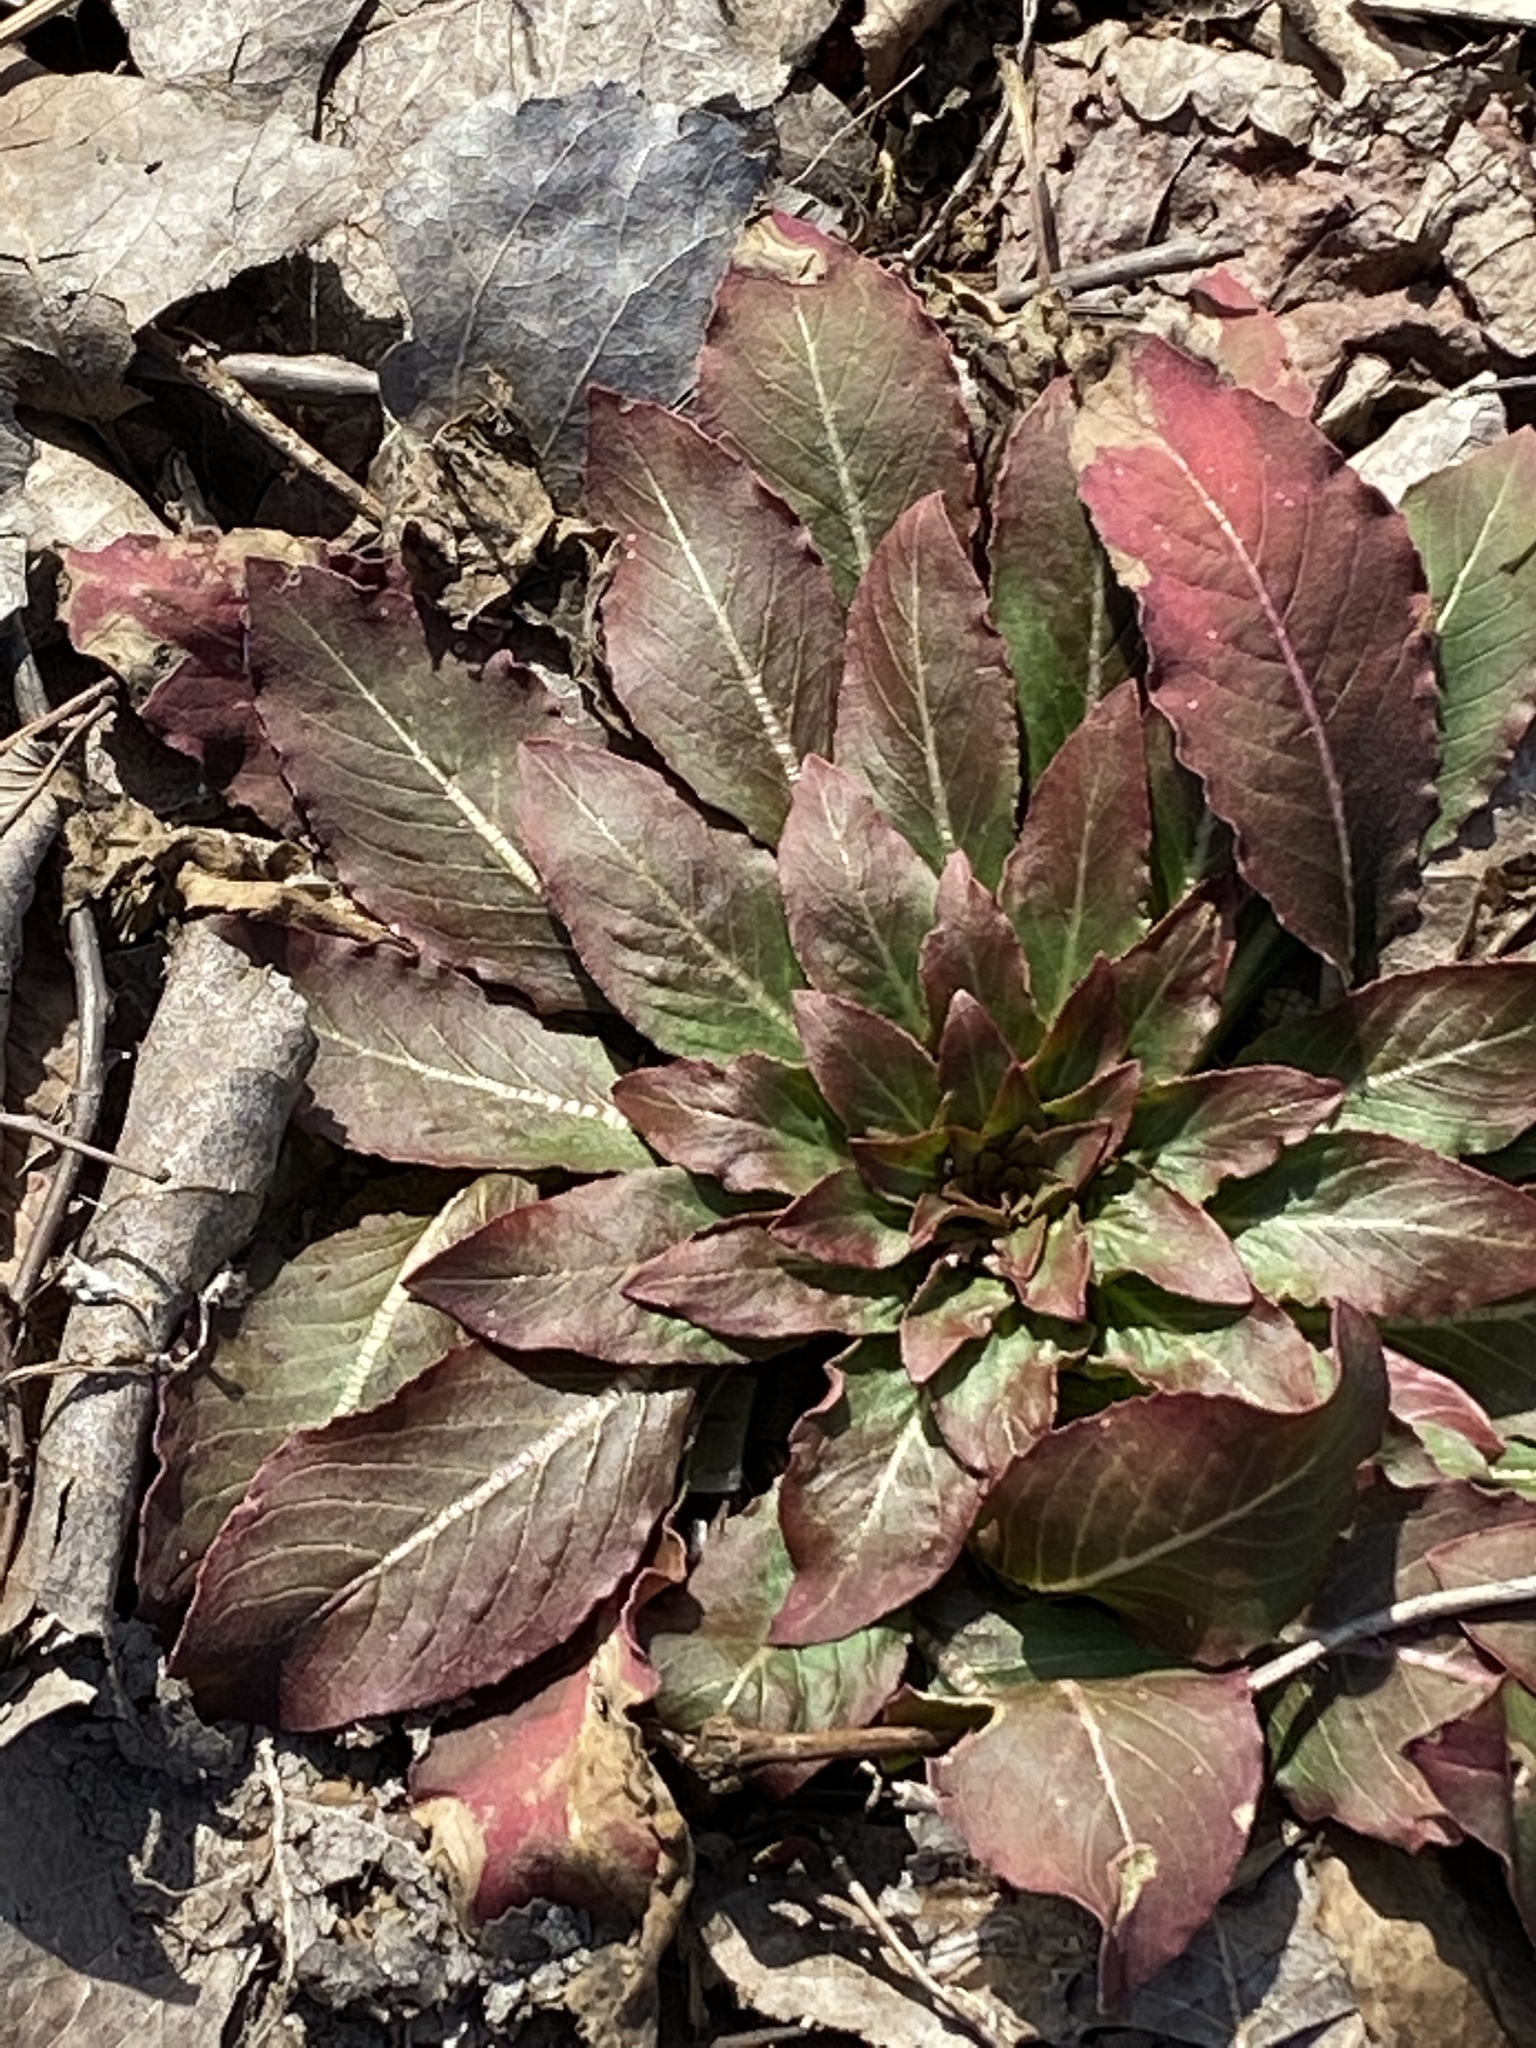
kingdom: Plantae
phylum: Tracheophyta
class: Magnoliopsida
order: Myrtales
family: Onagraceae
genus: Oenothera
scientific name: Oenothera biennis
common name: Common evening-primrose
